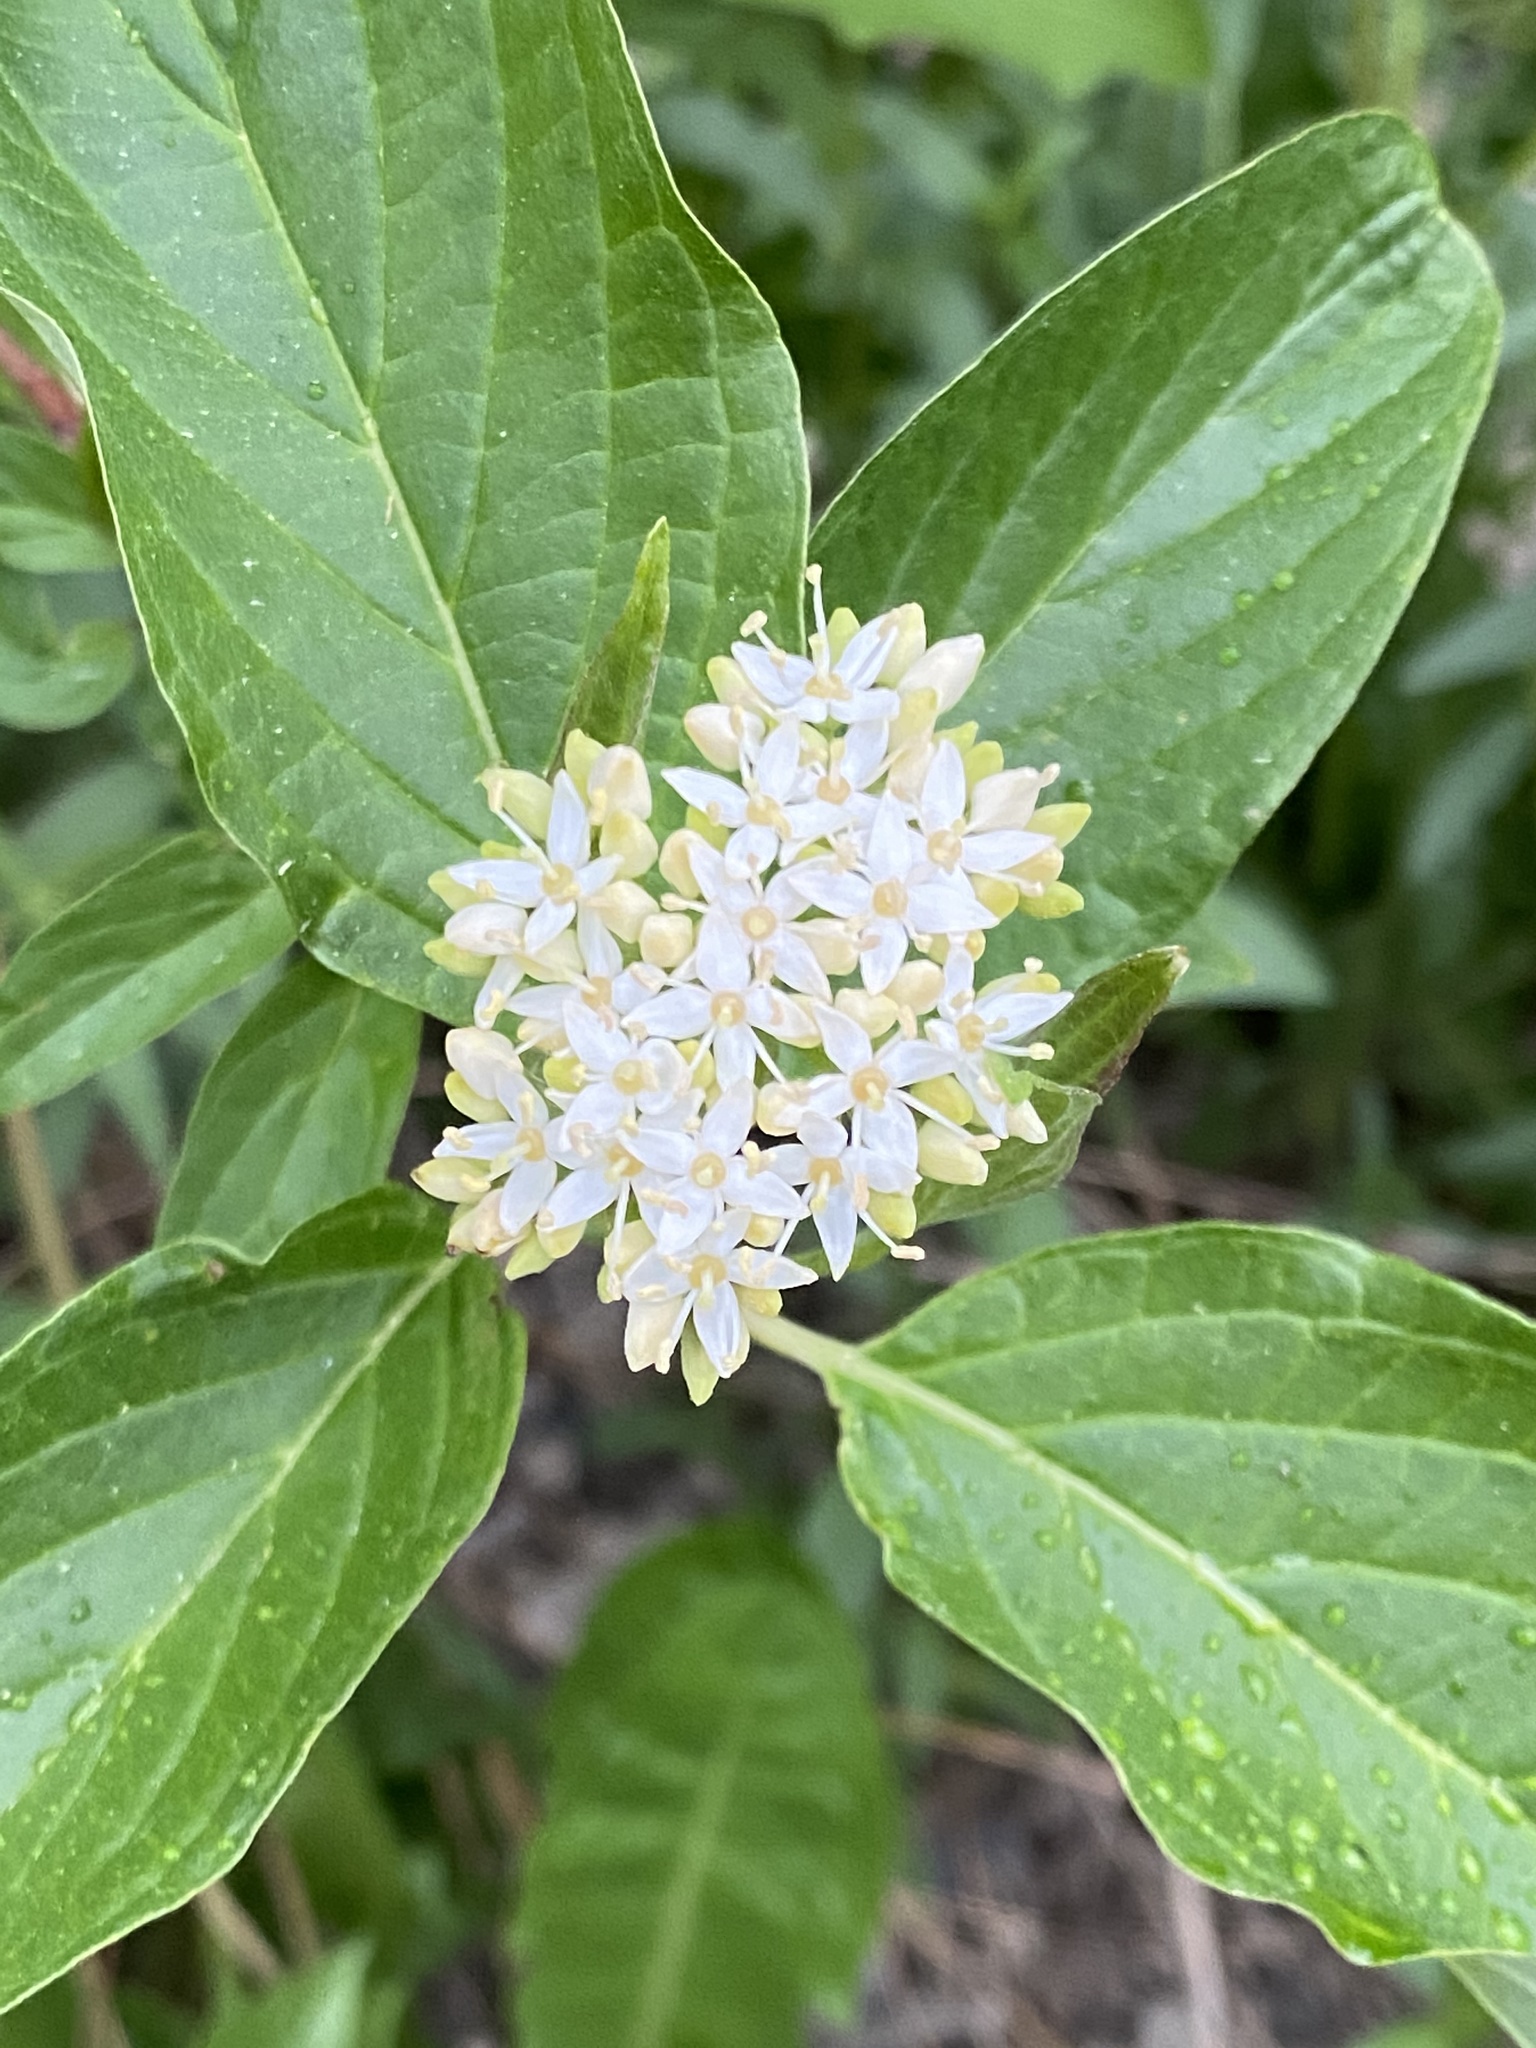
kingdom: Plantae
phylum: Tracheophyta
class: Magnoliopsida
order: Cornales
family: Cornaceae
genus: Cornus
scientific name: Cornus sericea
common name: Red-osier dogwood
